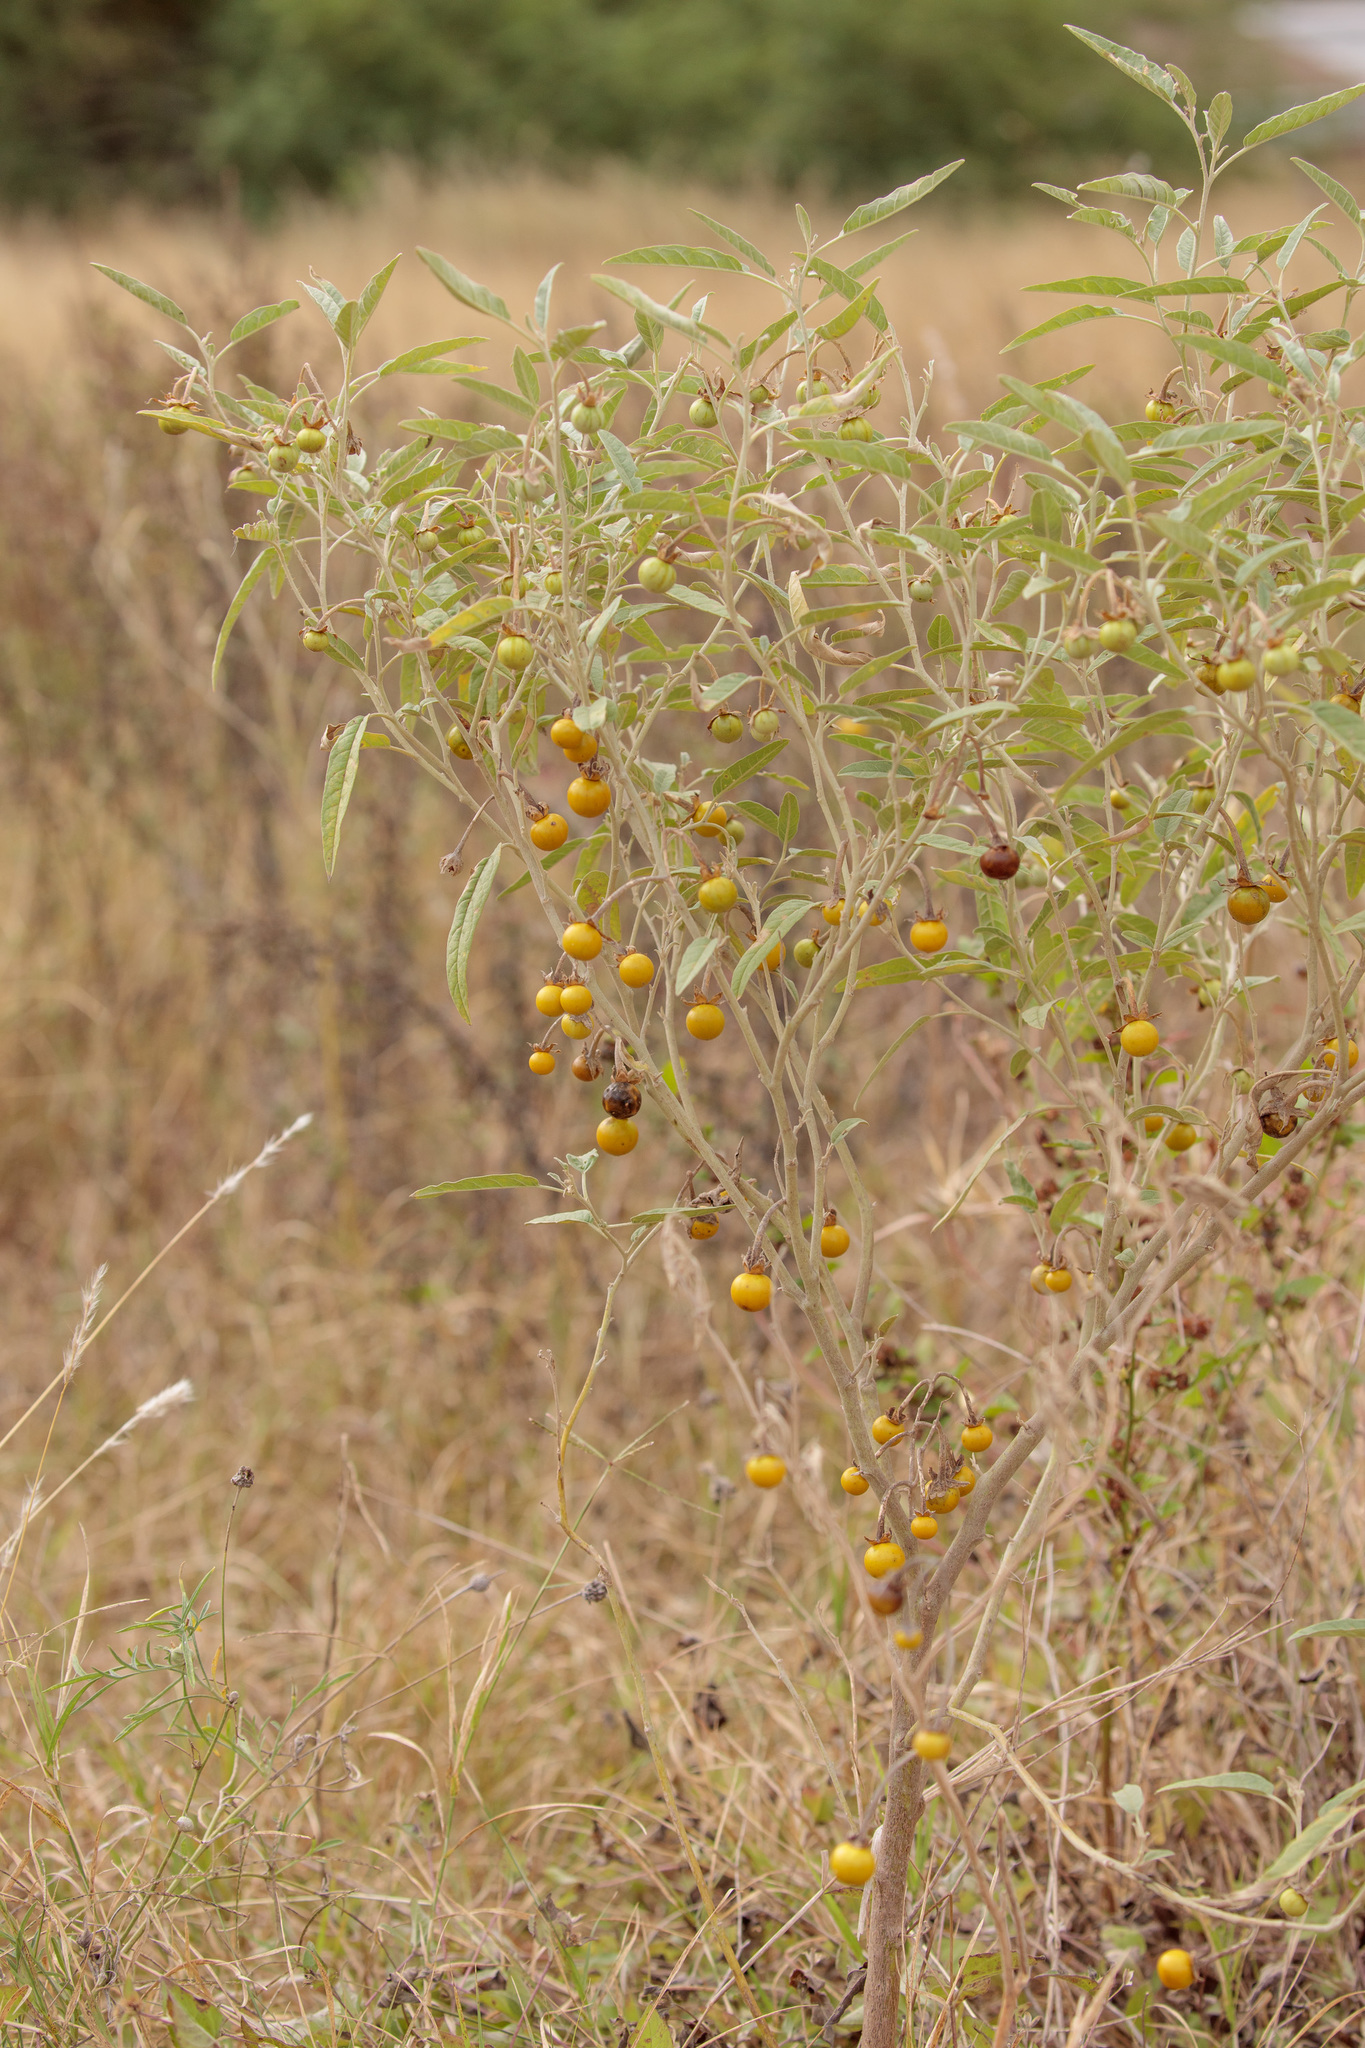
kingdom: Plantae
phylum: Tracheophyta
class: Magnoliopsida
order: Solanales
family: Solanaceae
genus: Solanum
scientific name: Solanum elaeagnifolium
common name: Silverleaf nightshade
